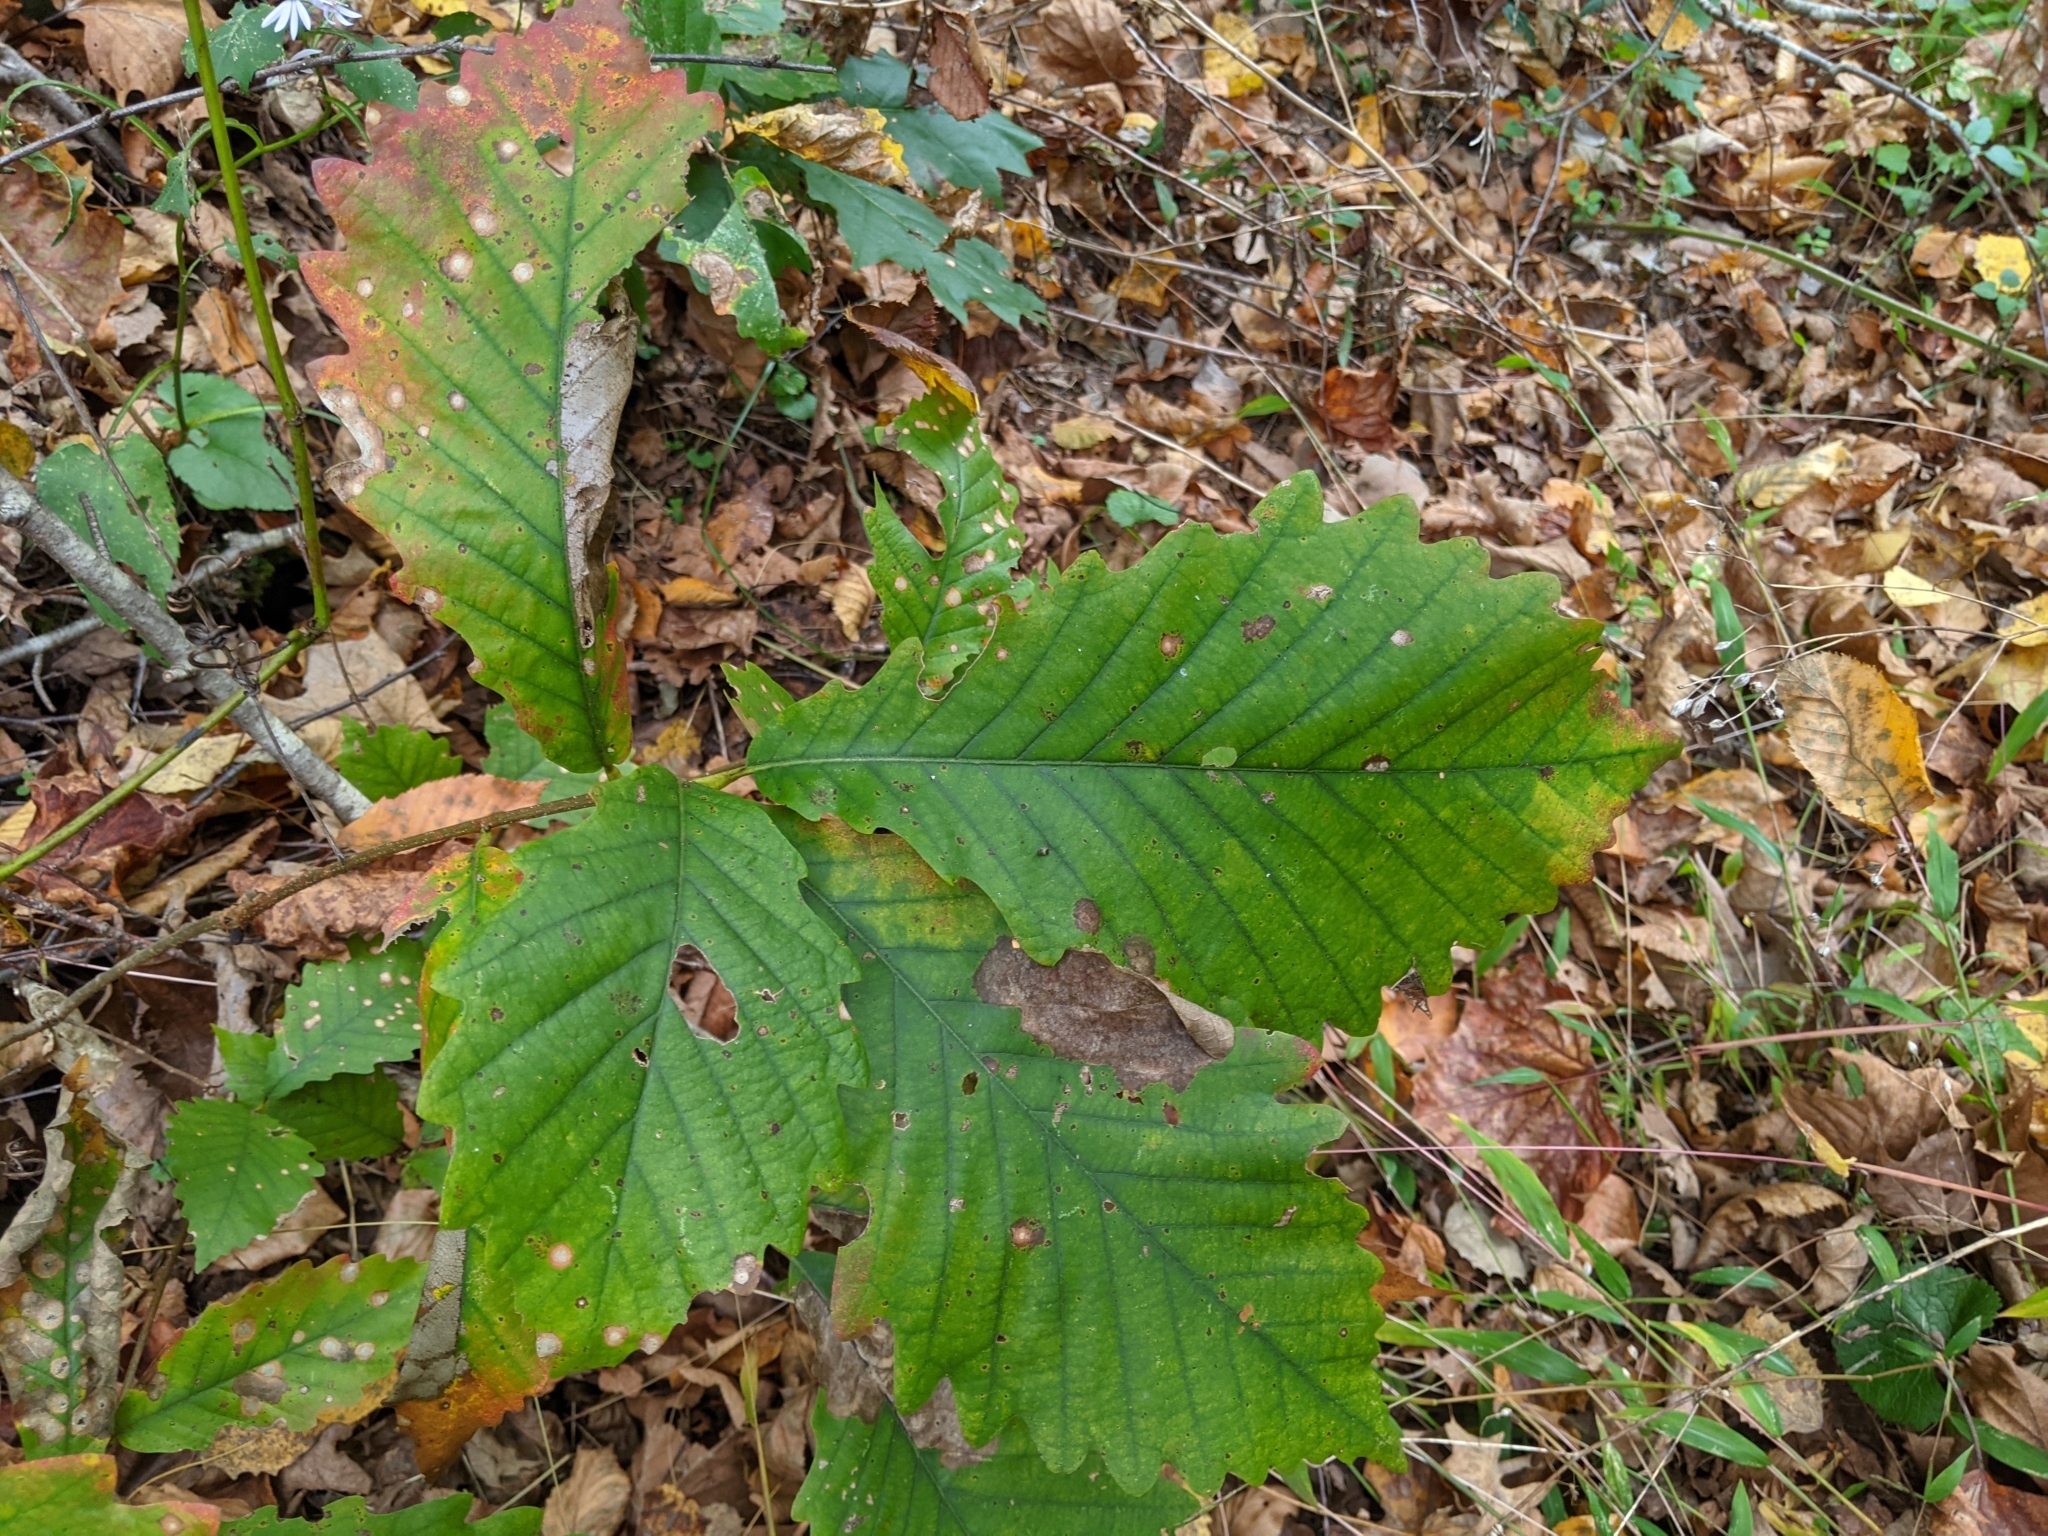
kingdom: Plantae
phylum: Tracheophyta
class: Magnoliopsida
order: Fagales
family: Fagaceae
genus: Quercus
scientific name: Quercus montana
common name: Chestnut oak
